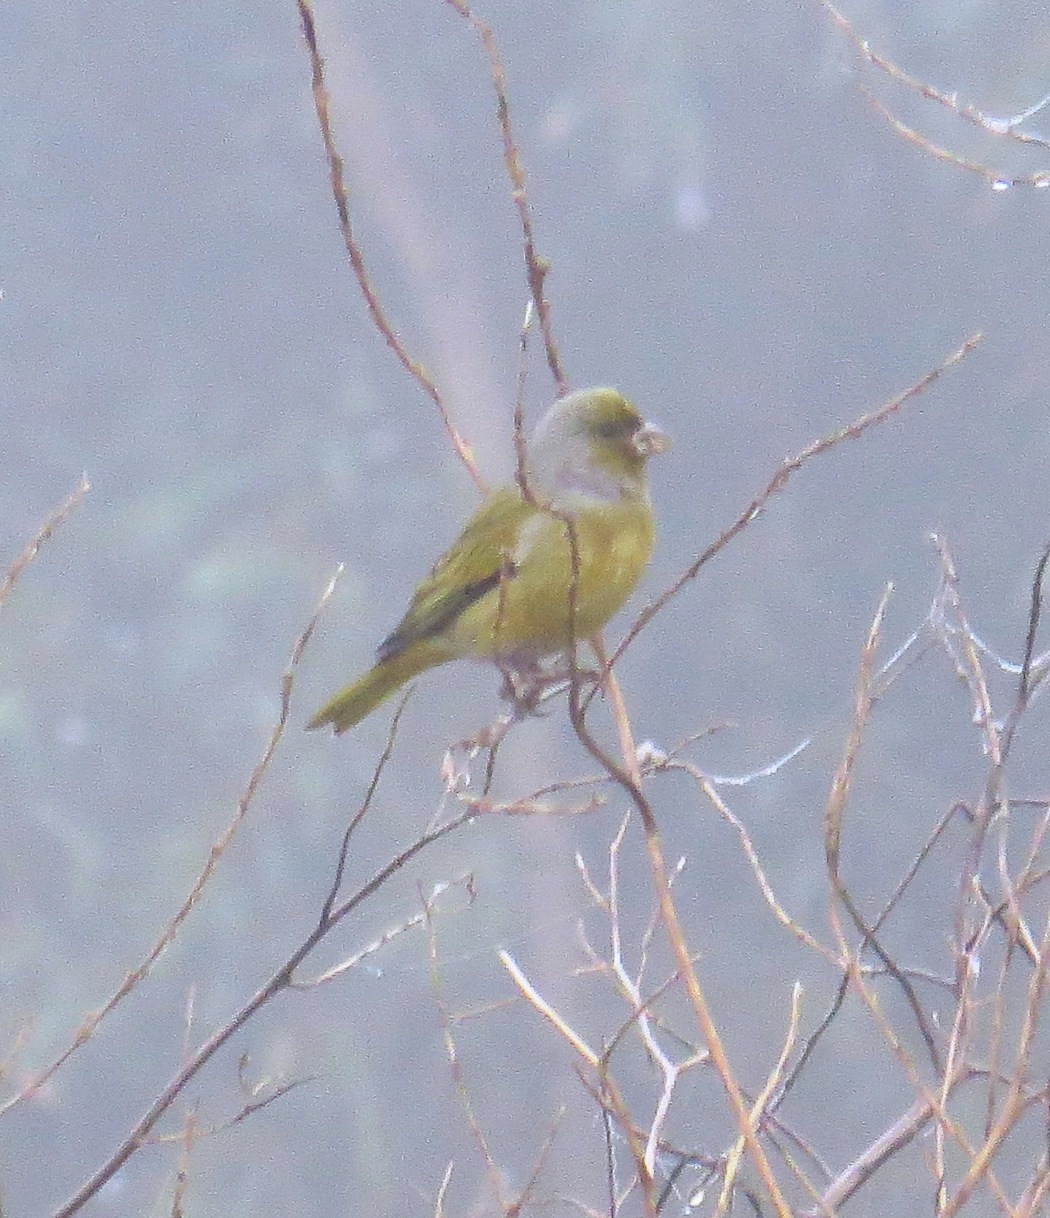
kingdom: Animalia
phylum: Chordata
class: Aves
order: Passeriformes
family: Fringillidae
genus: Serinus
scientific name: Serinus canicollis
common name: Cape canary
